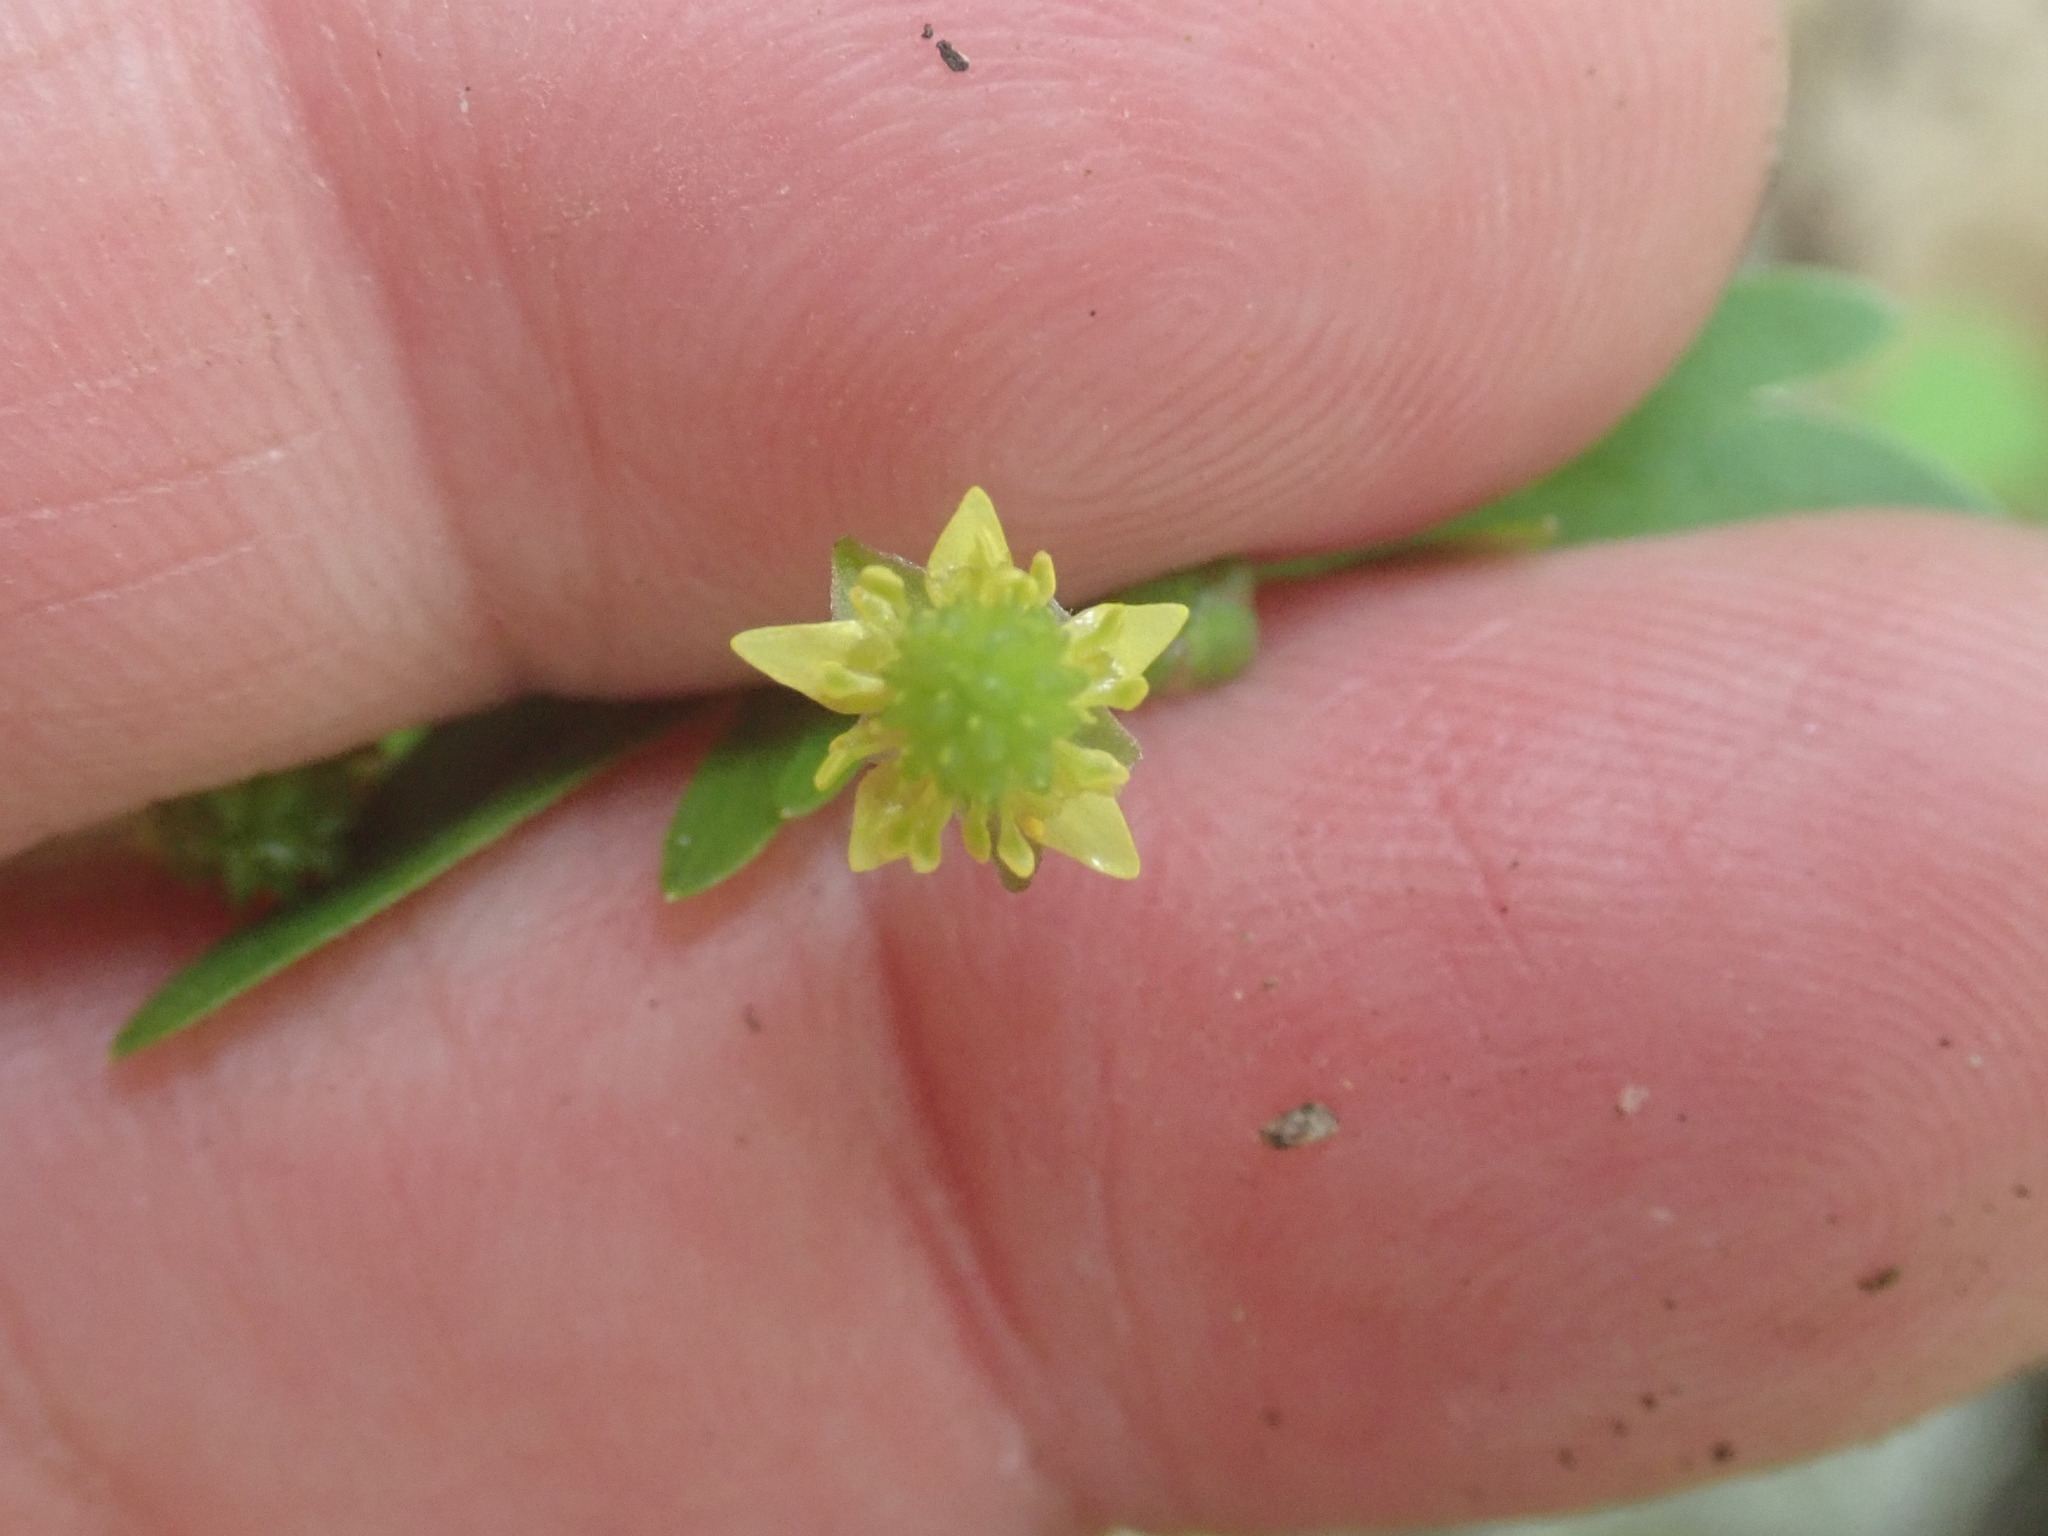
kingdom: Plantae
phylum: Tracheophyta
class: Magnoliopsida
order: Ranunculales
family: Ranunculaceae
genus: Ranunculus
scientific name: Ranunculus abortivus
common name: Early wood buttercup
